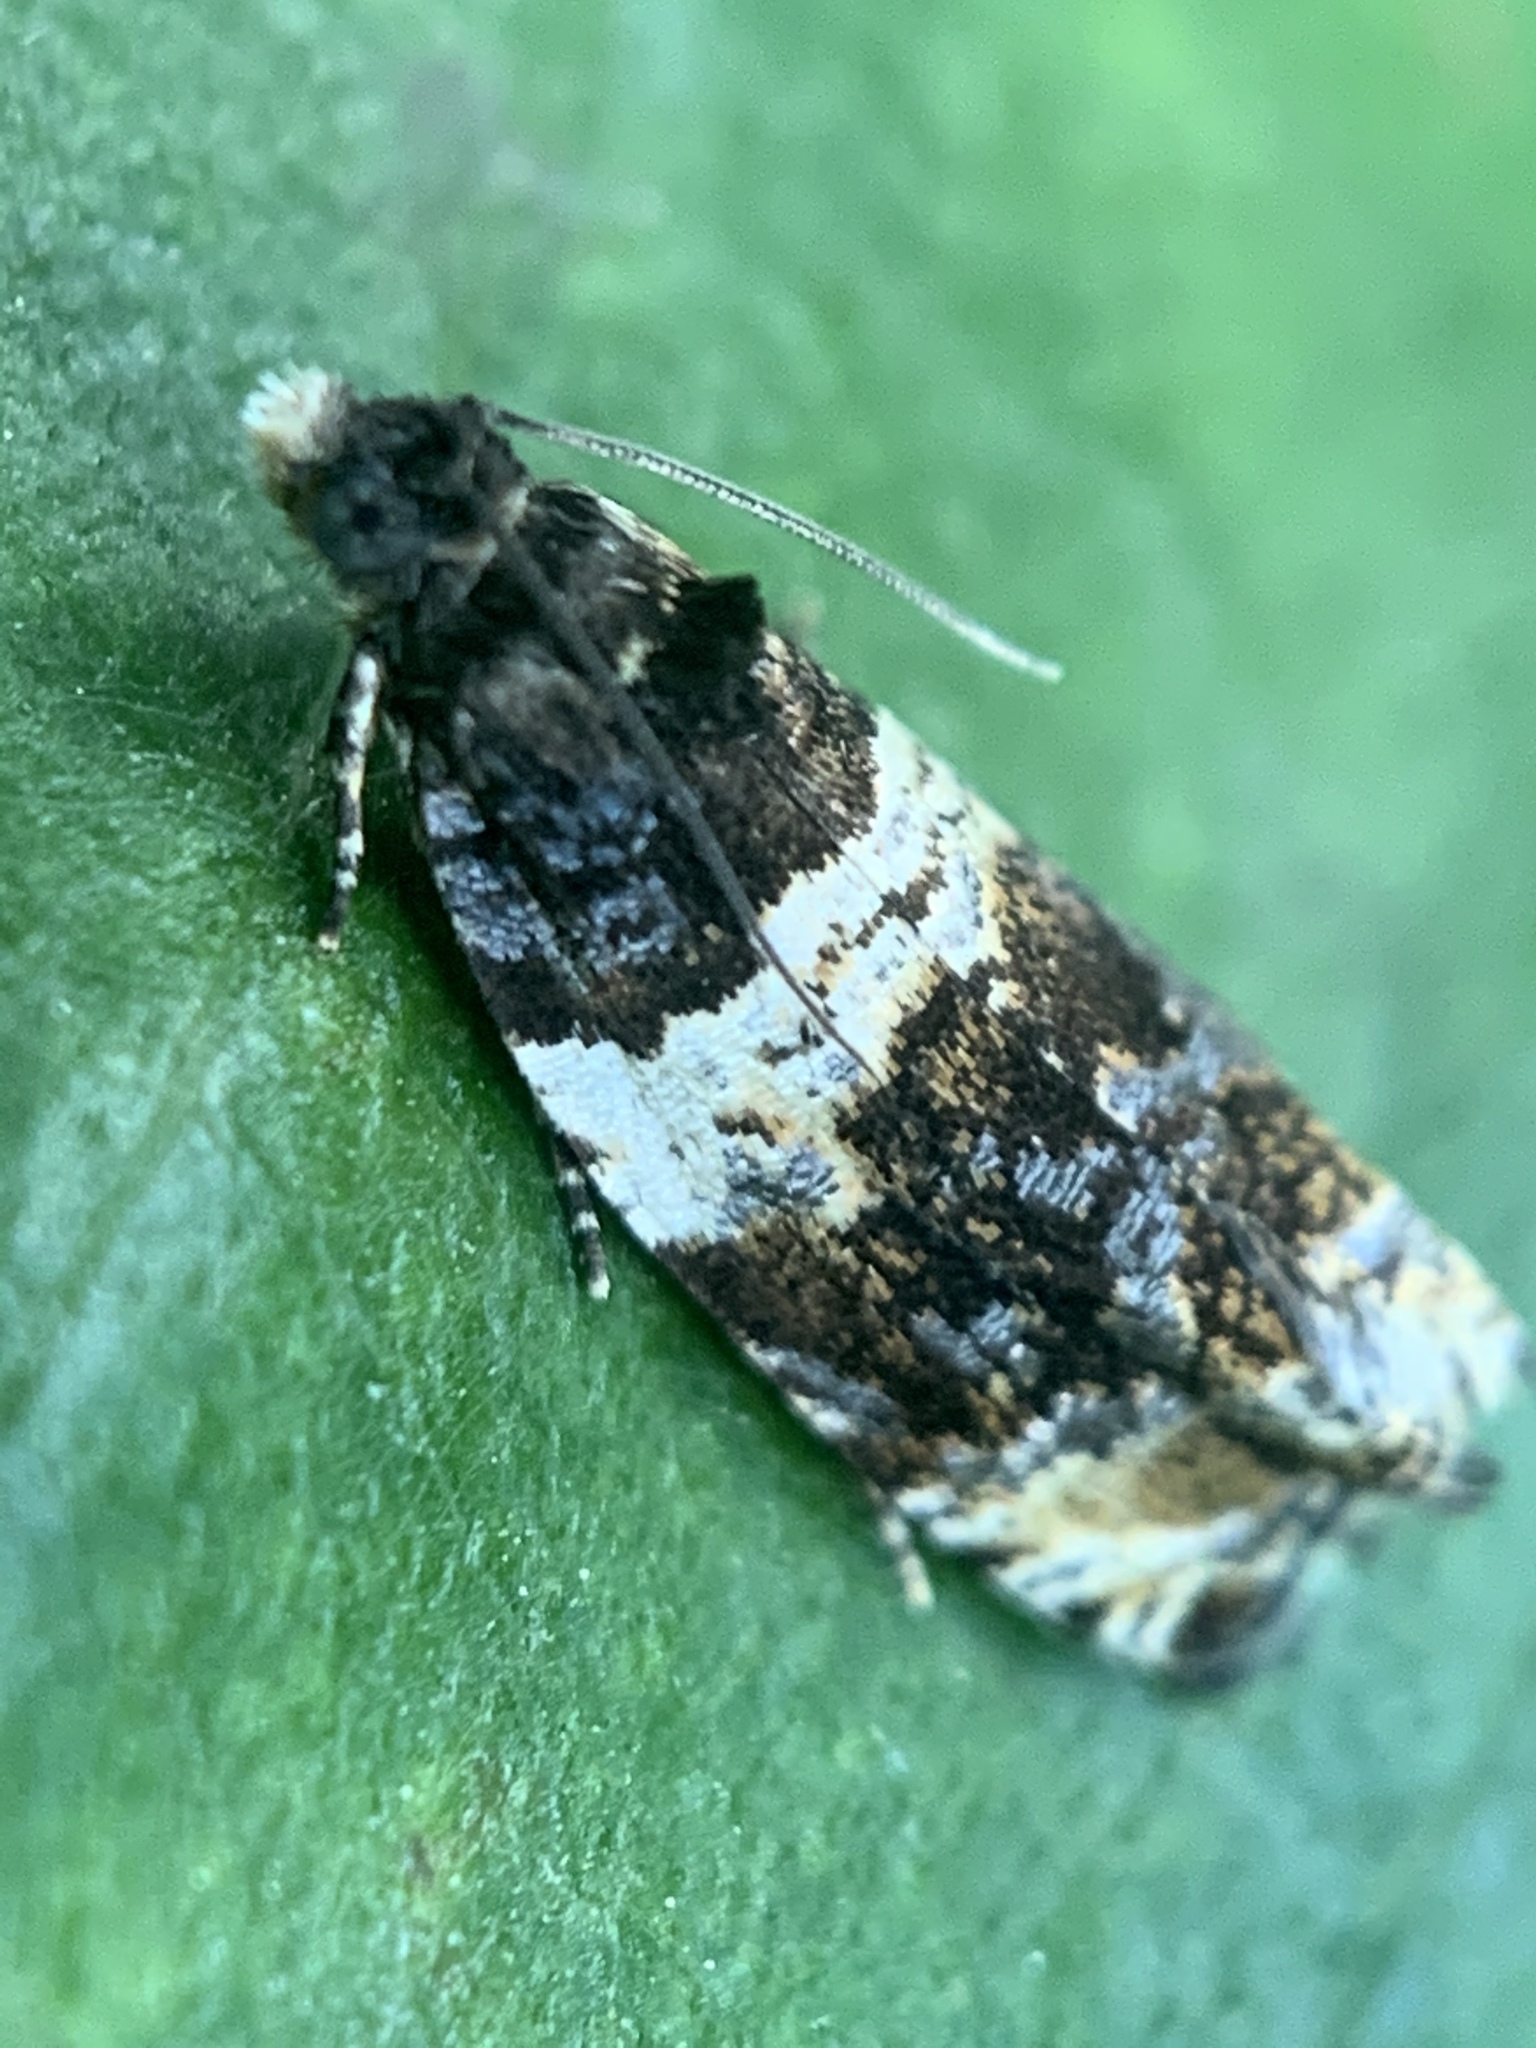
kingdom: Animalia
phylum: Arthropoda
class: Insecta
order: Lepidoptera
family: Tortricidae
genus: Olethreutes
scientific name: Olethreutes fasciatana
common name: Banded olethreutes moth
